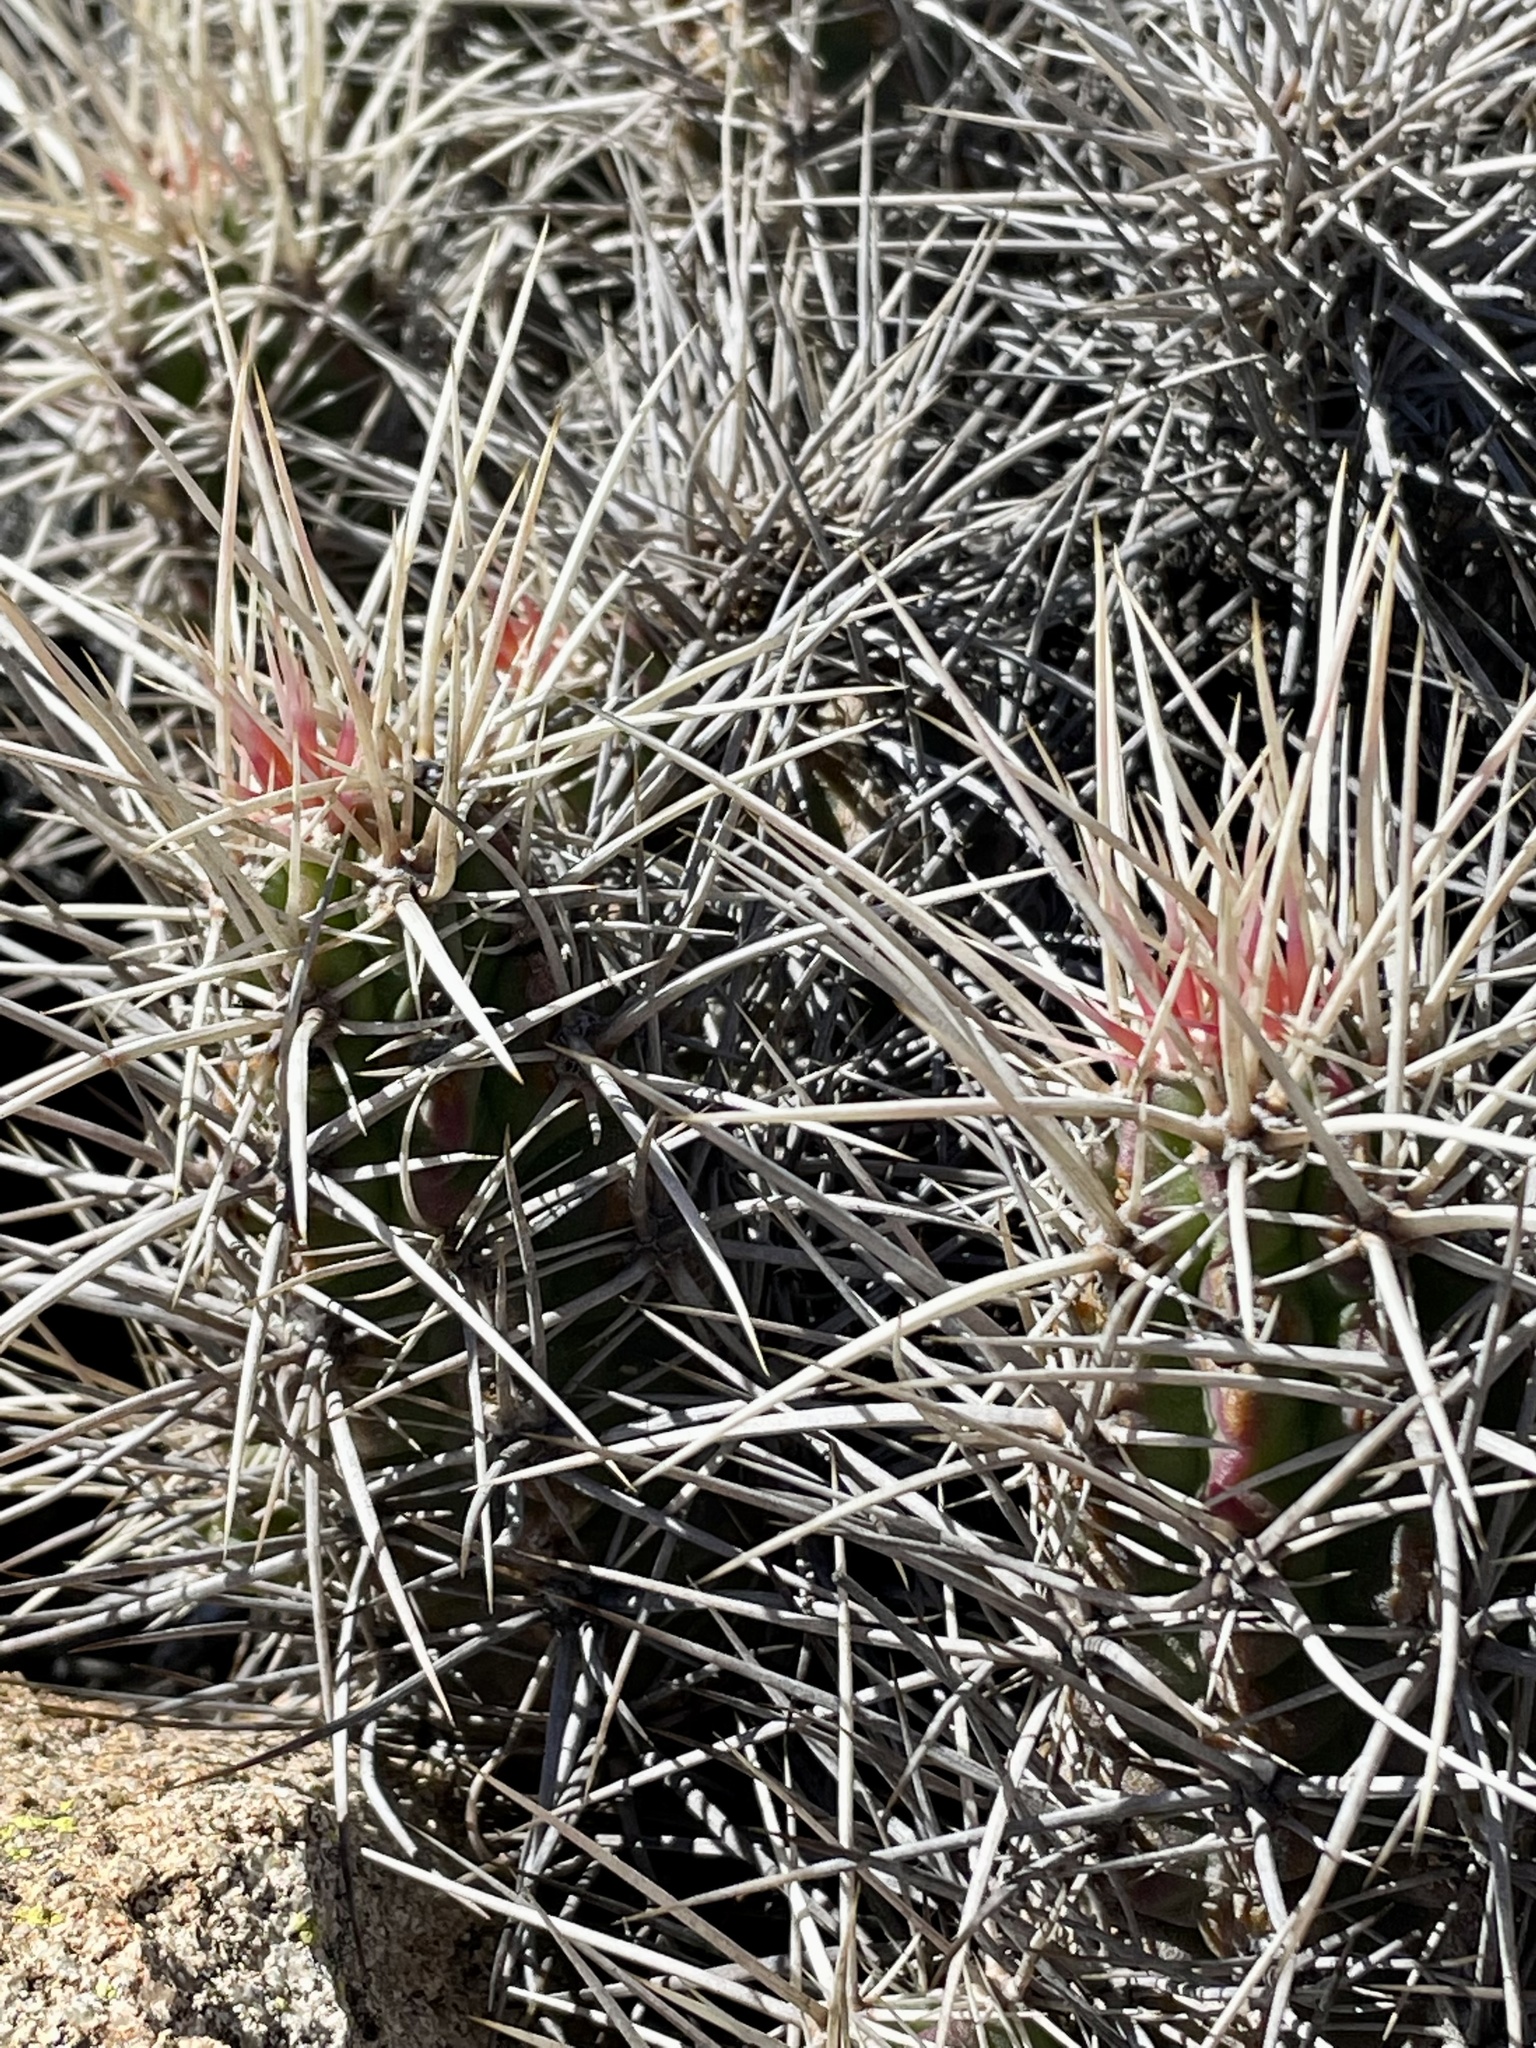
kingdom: Plantae
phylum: Tracheophyta
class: Magnoliopsida
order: Caryophyllales
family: Cactaceae
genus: Echinocereus
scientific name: Echinocereus maritimus
